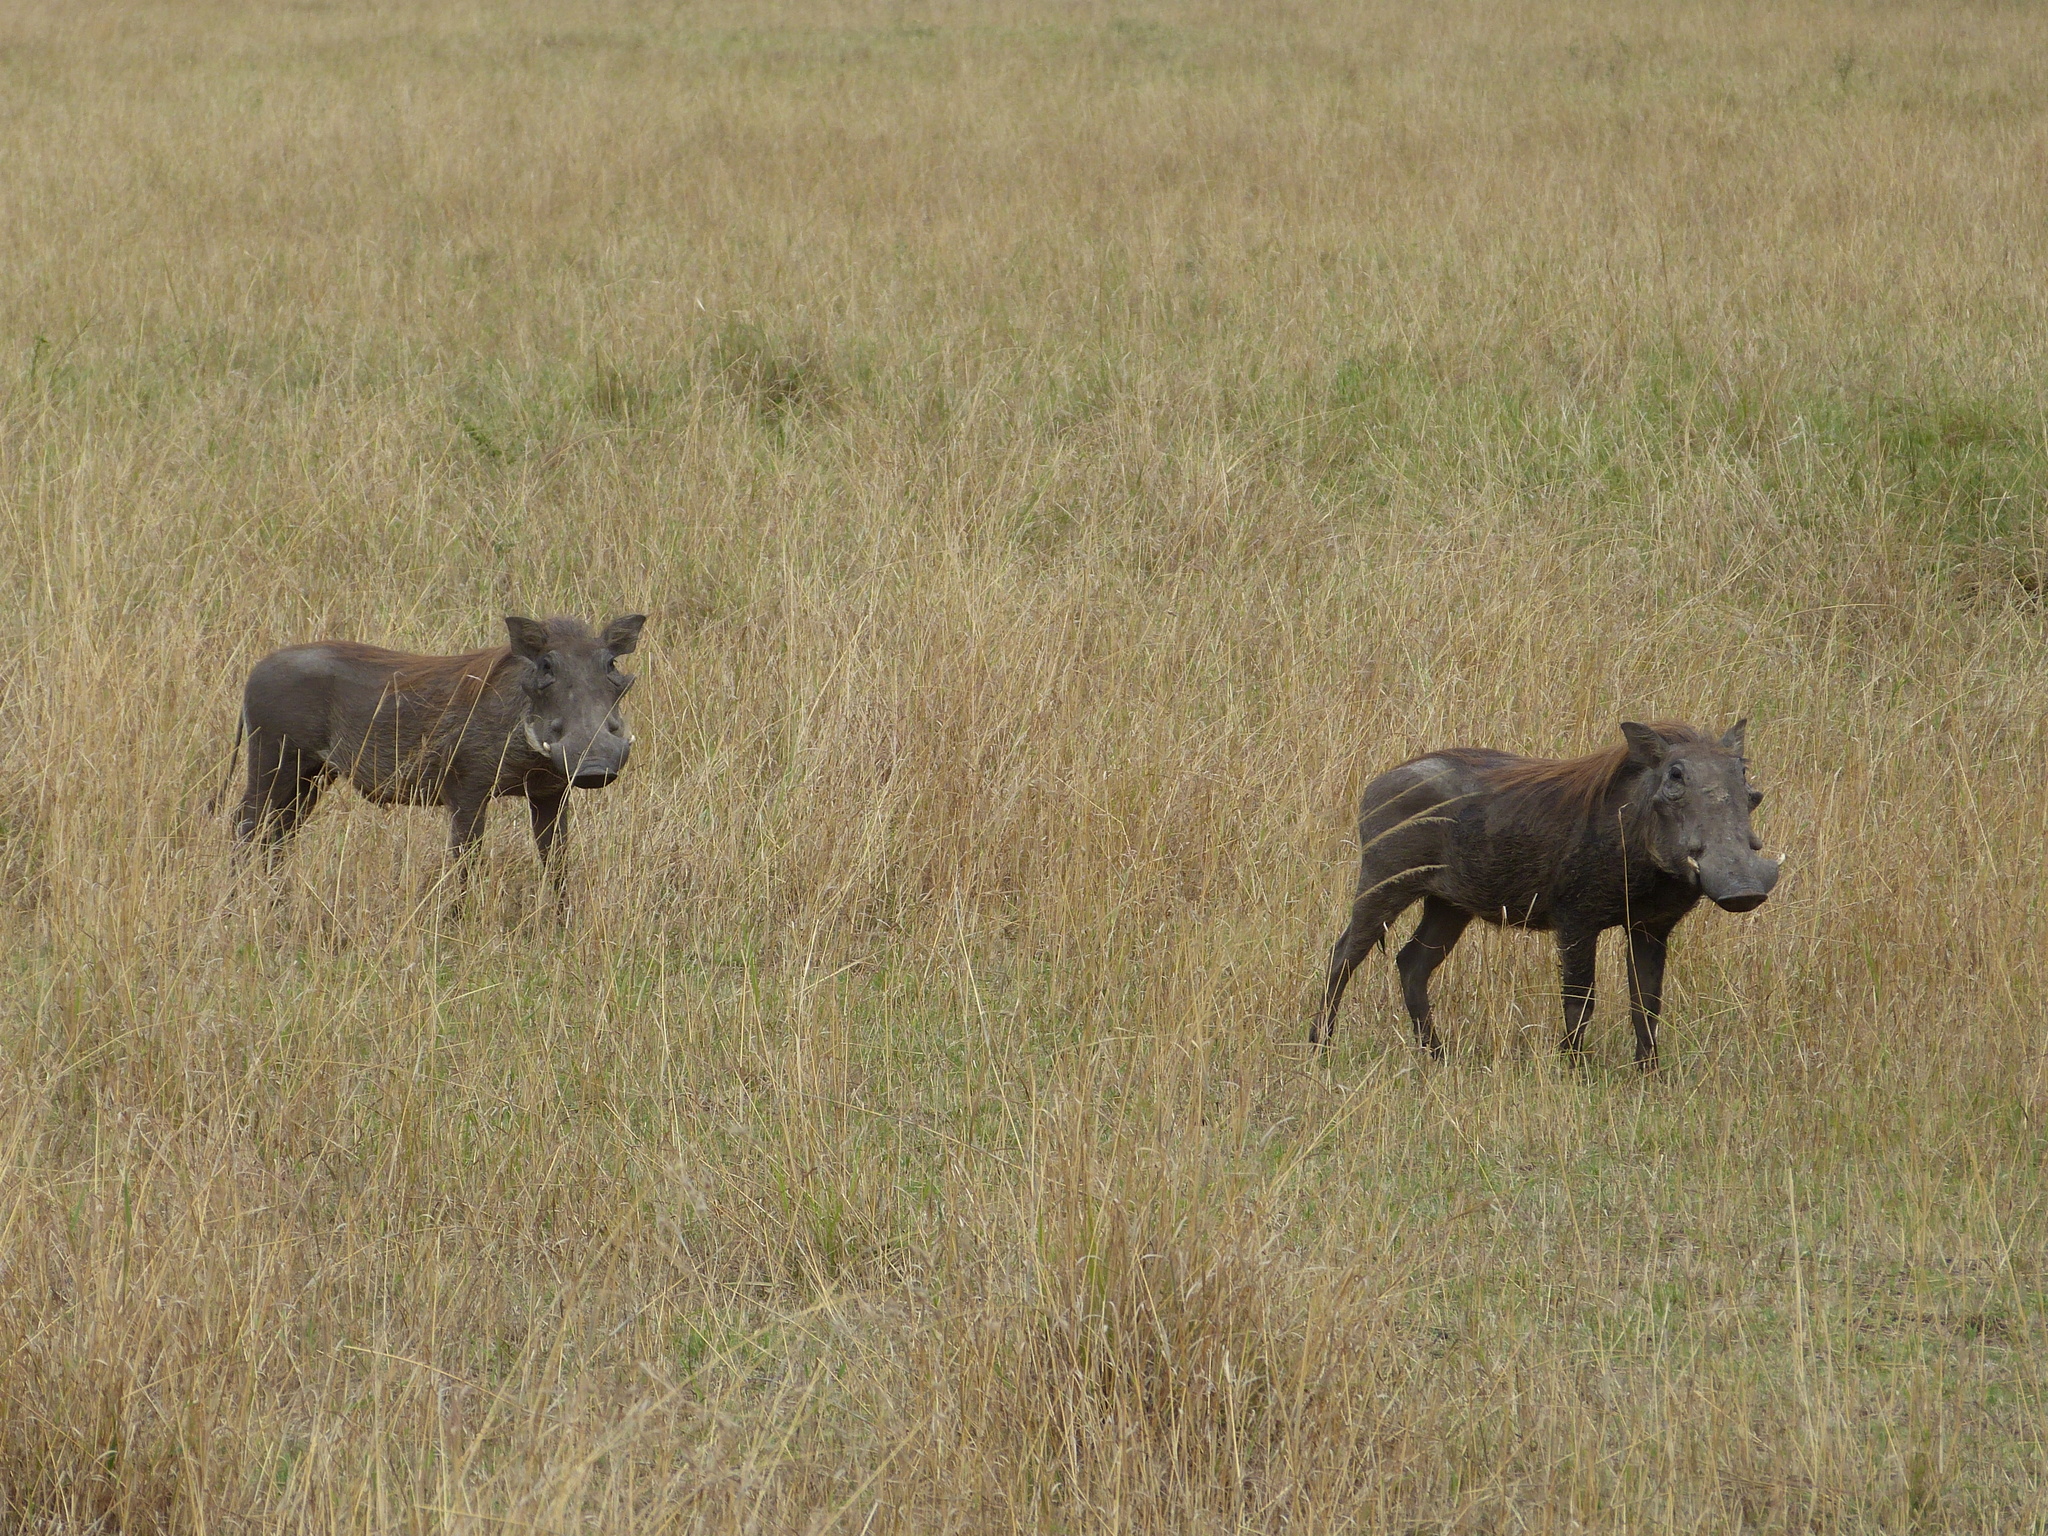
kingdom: Animalia
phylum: Chordata
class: Mammalia
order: Artiodactyla
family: Suidae
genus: Phacochoerus
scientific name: Phacochoerus africanus
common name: Common warthog
